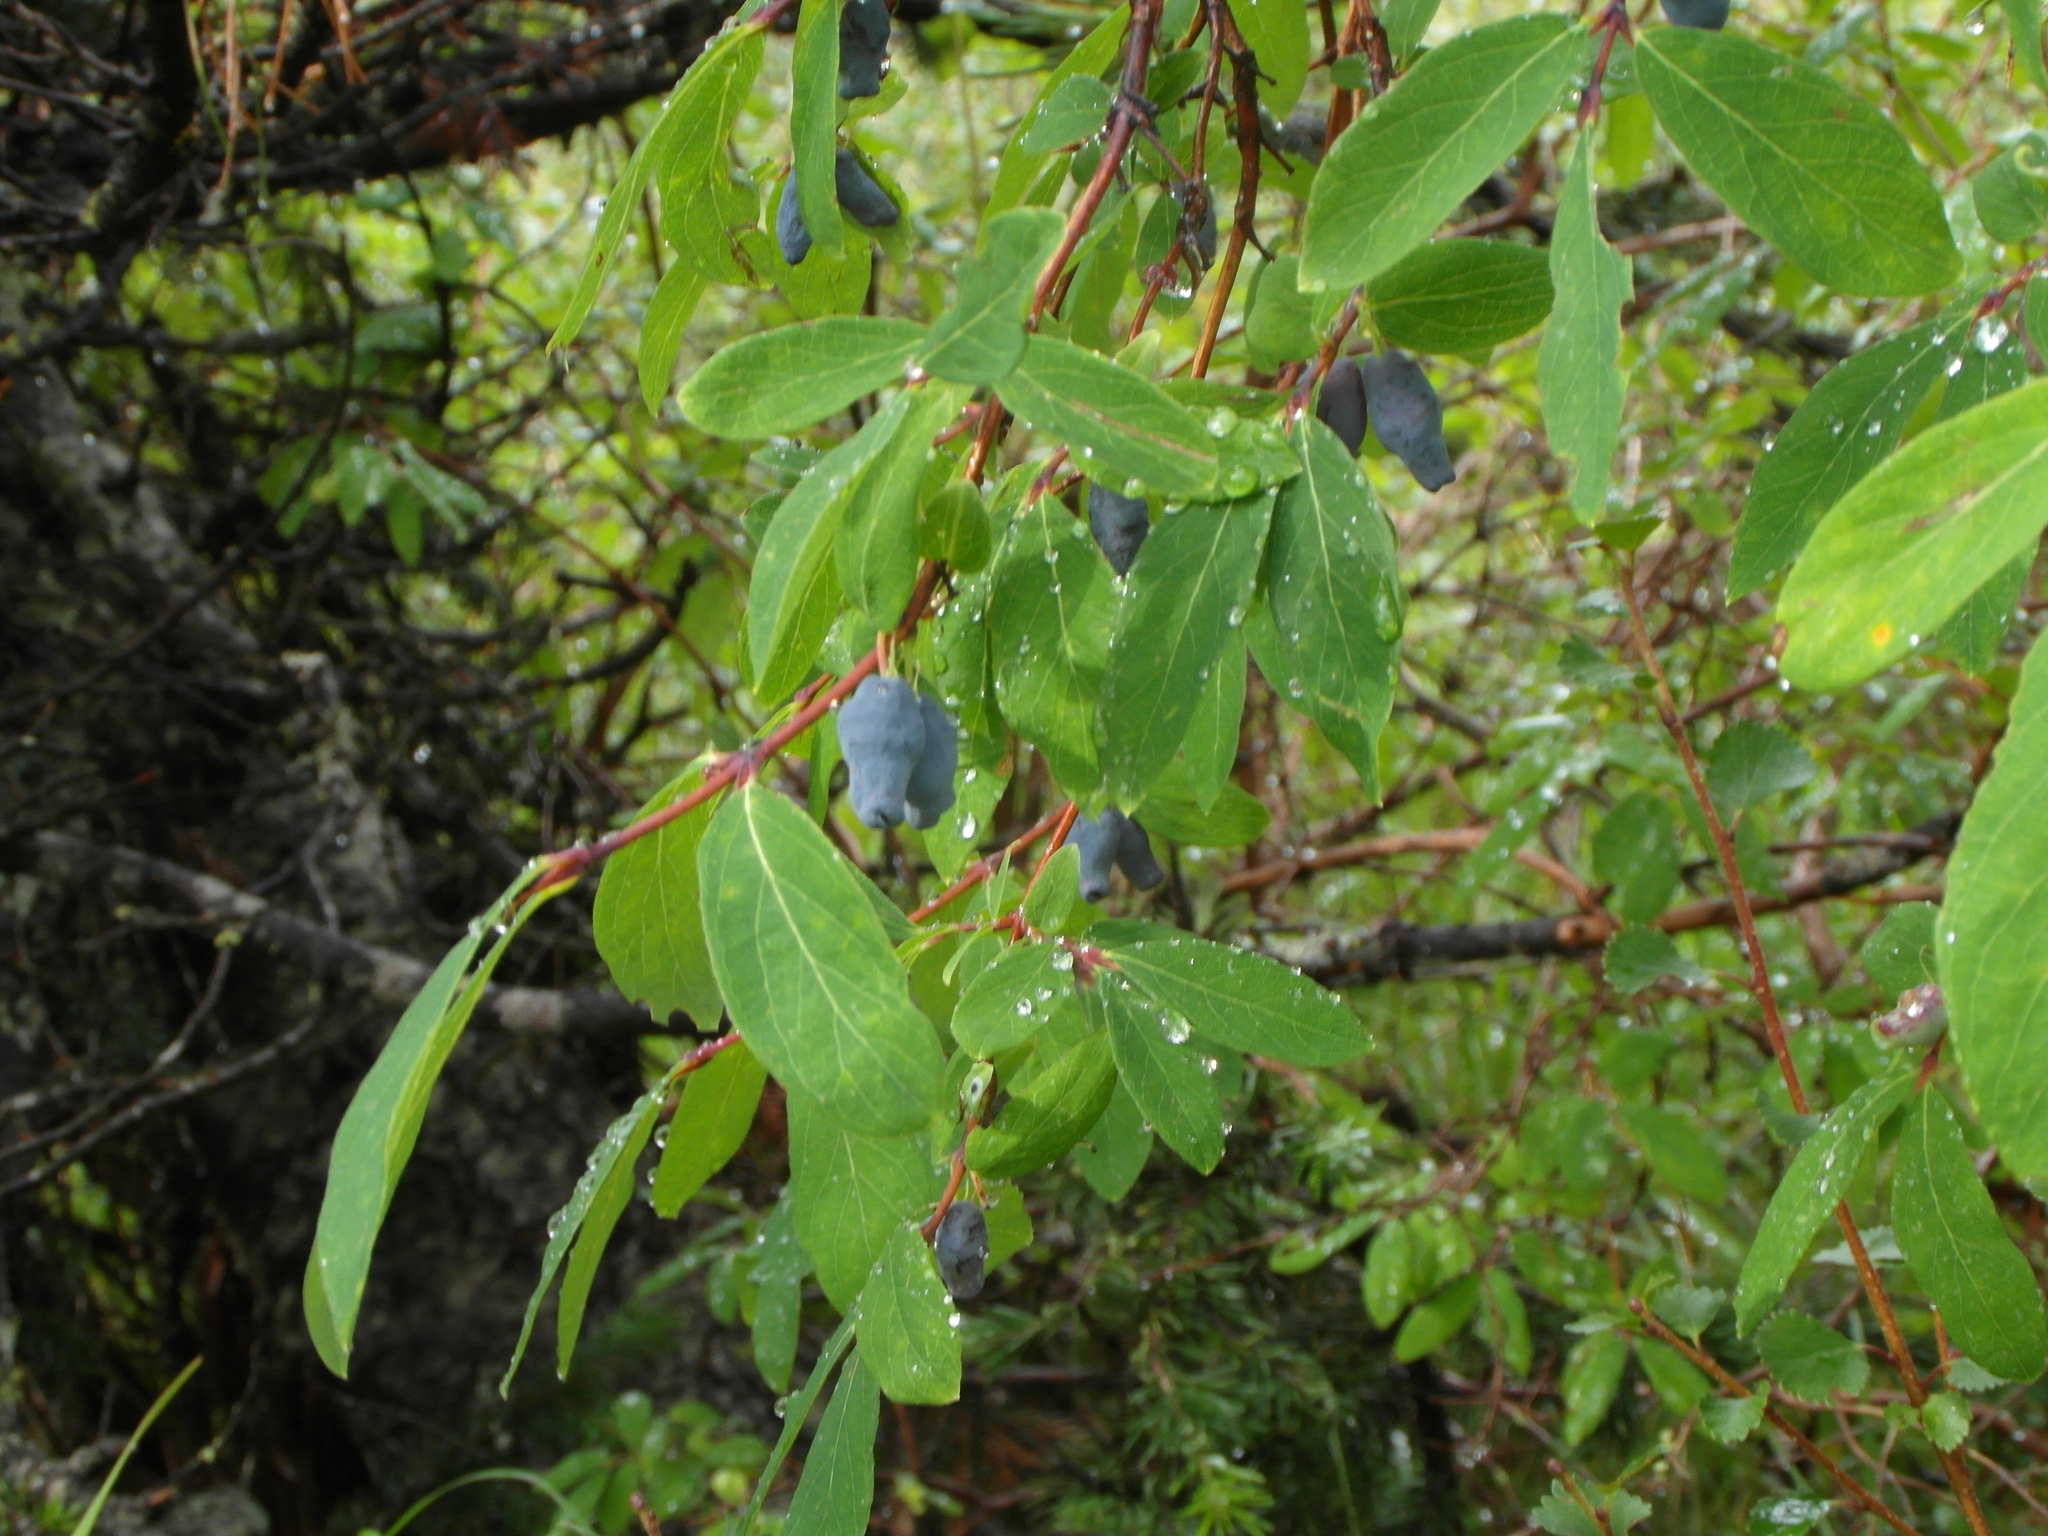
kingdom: Plantae
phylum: Tracheophyta
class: Magnoliopsida
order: Dipsacales
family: Caprifoliaceae
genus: Lonicera
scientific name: Lonicera caerulea
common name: Blue honeysuckle
